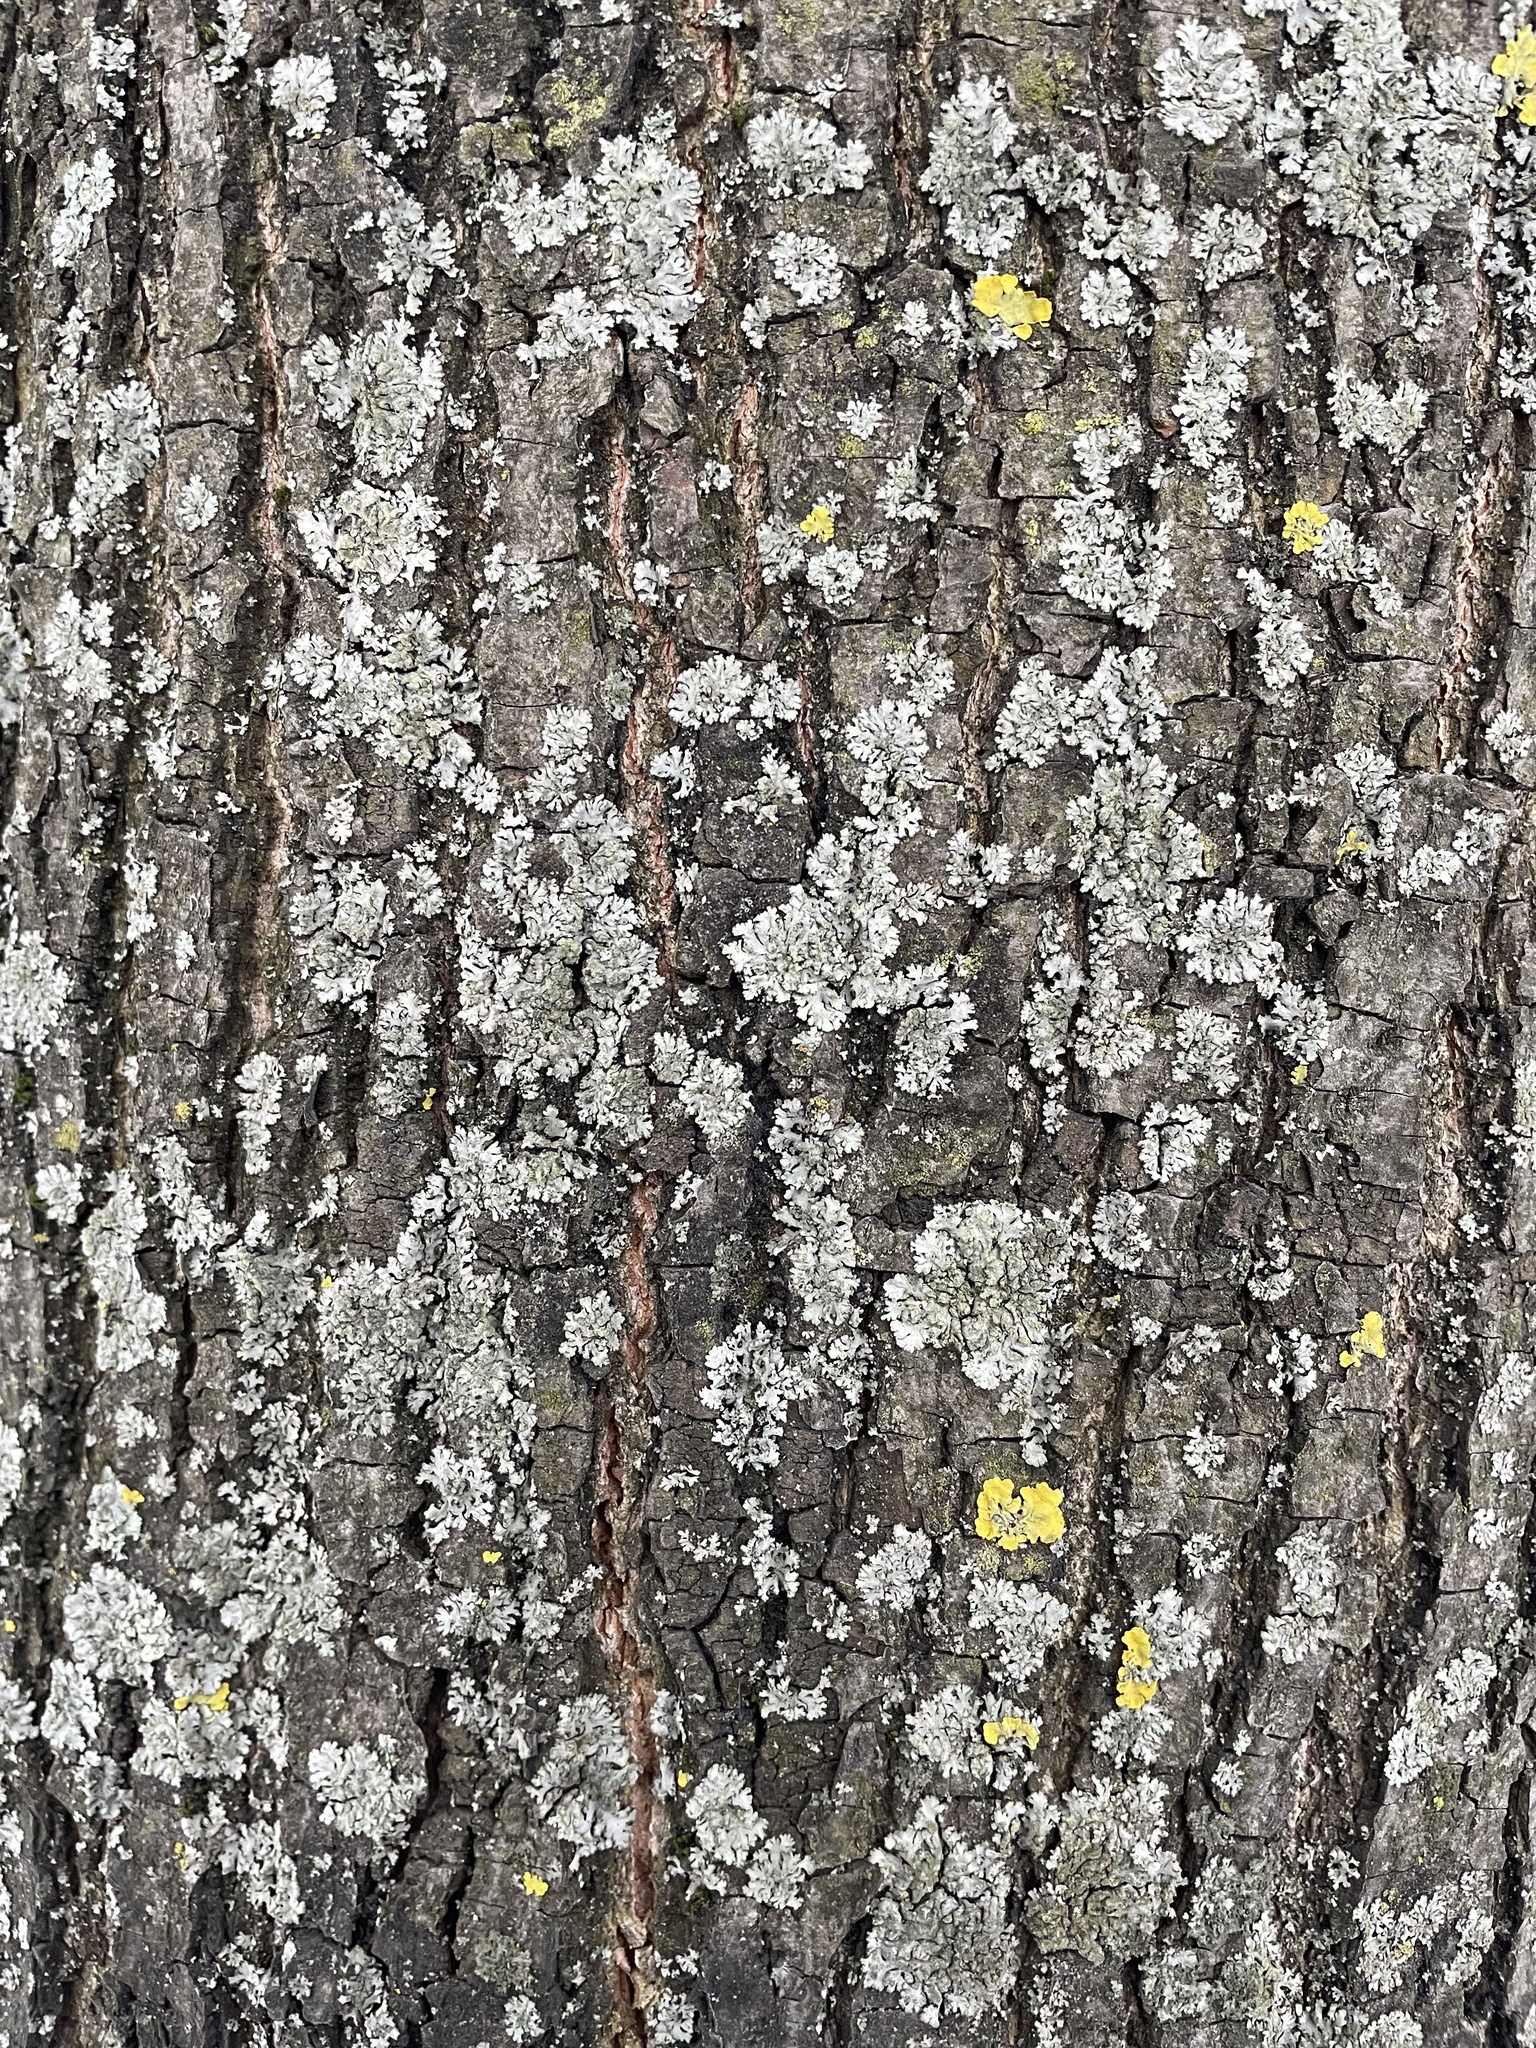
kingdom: Fungi
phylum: Ascomycota
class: Lecanoromycetes
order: Caliciales
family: Physciaceae
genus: Phaeophyscia
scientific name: Phaeophyscia orbicularis
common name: Mealy shadow lichen
